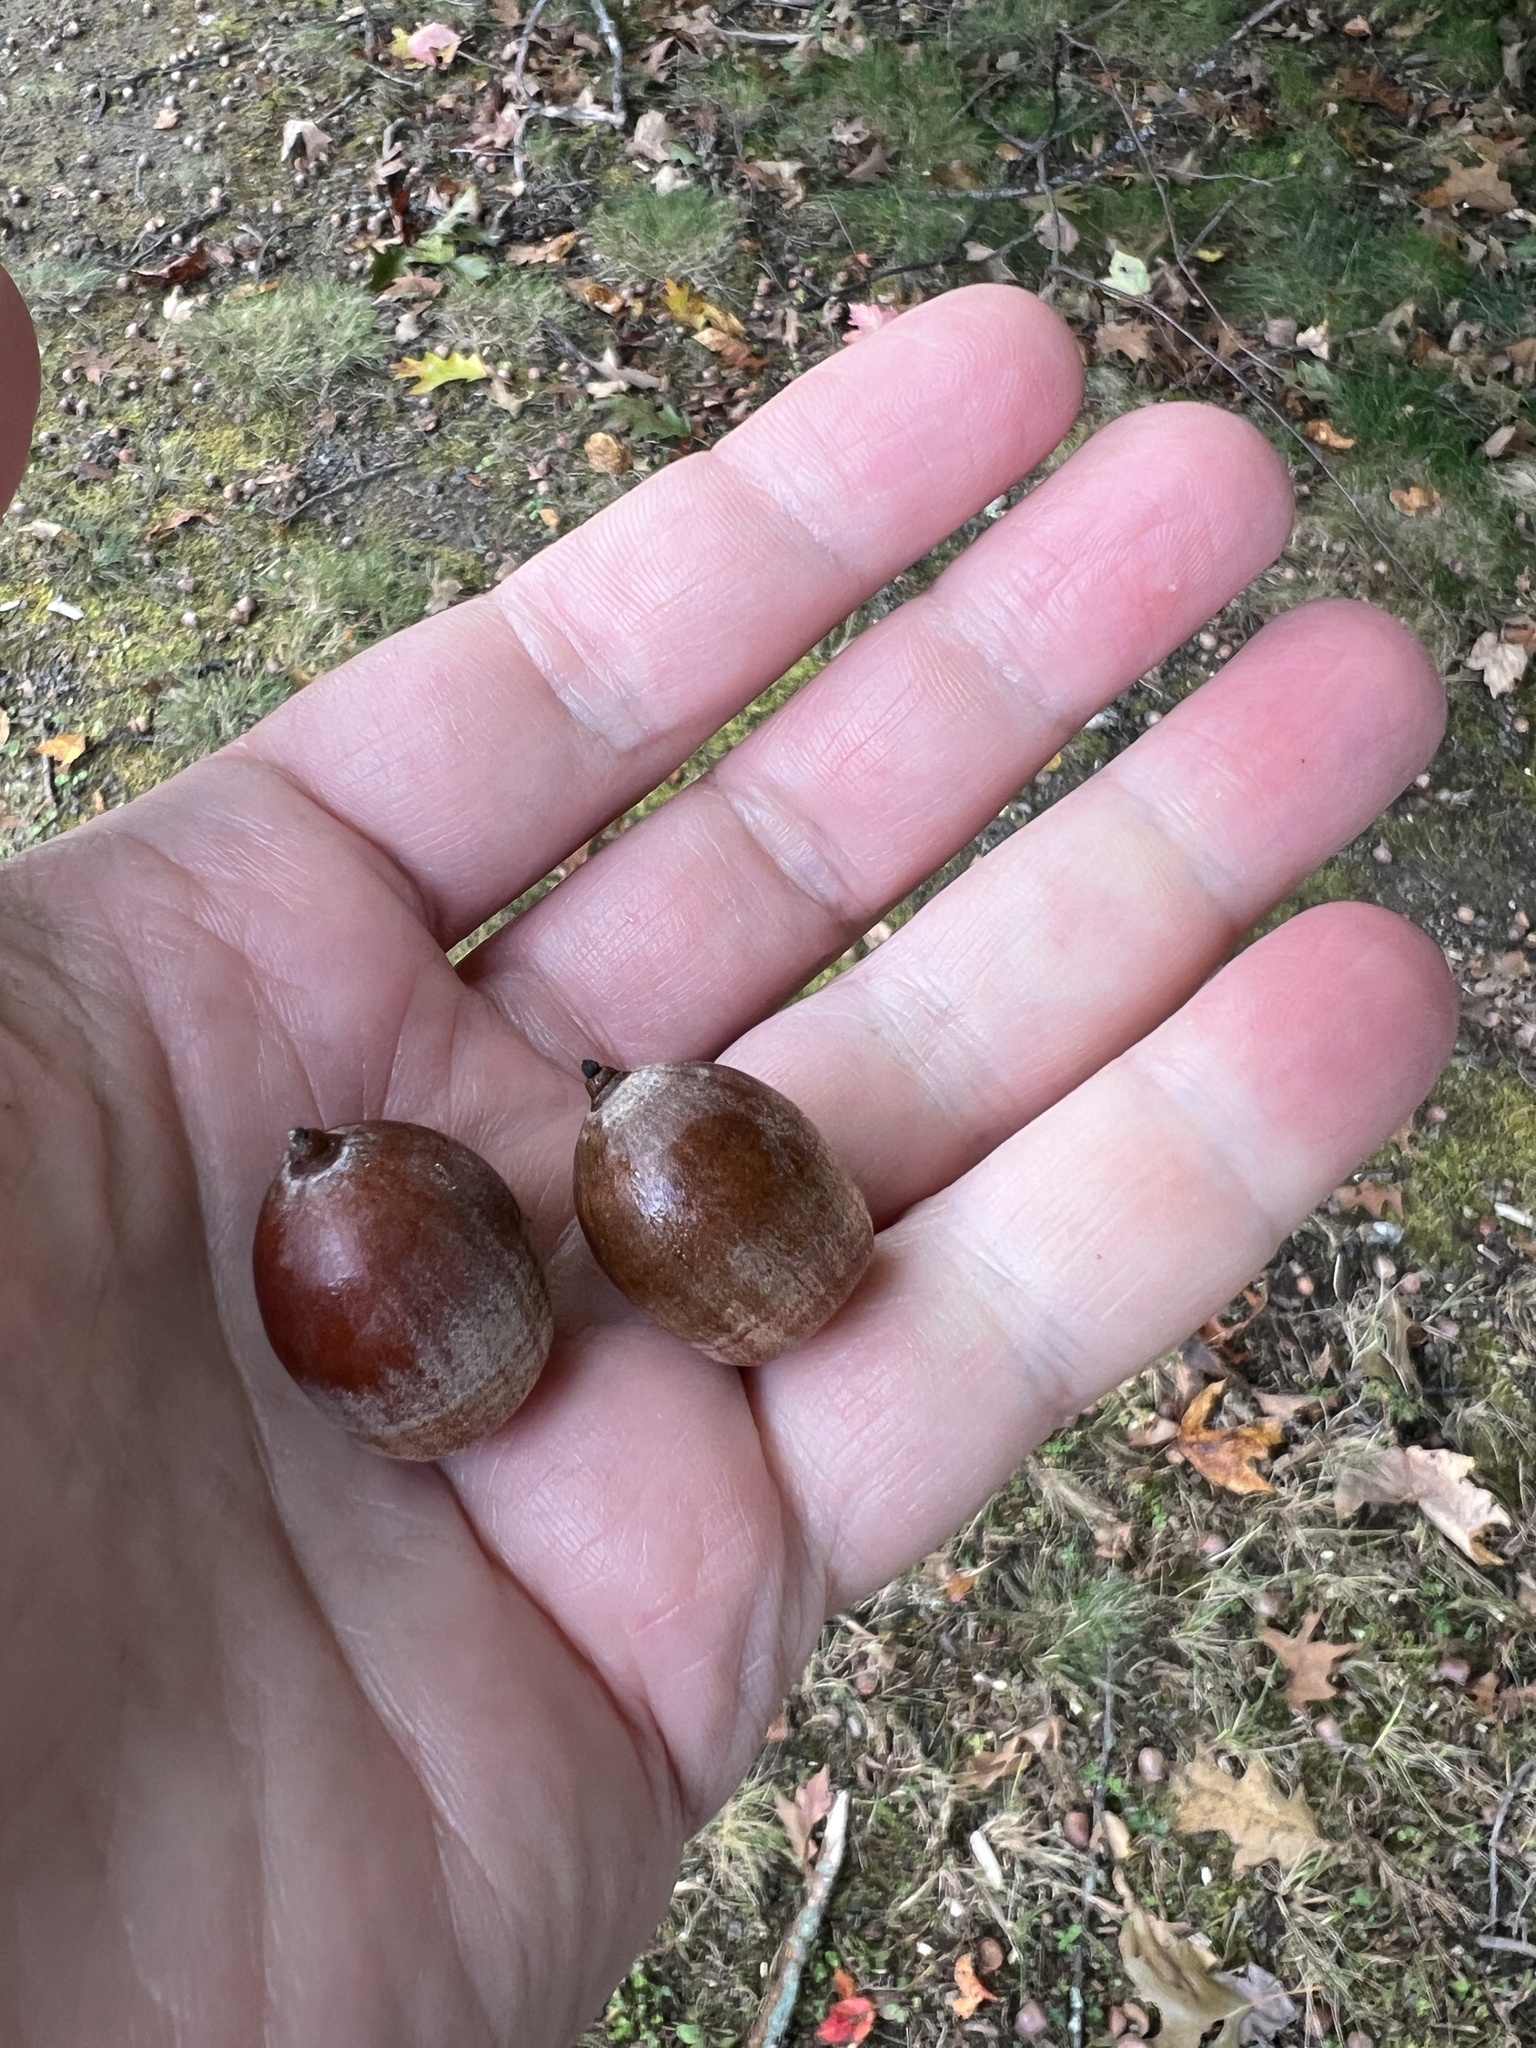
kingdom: Plantae
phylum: Tracheophyta
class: Magnoliopsida
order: Fagales
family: Fagaceae
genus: Quercus
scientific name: Quercus rubra
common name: Red oak
